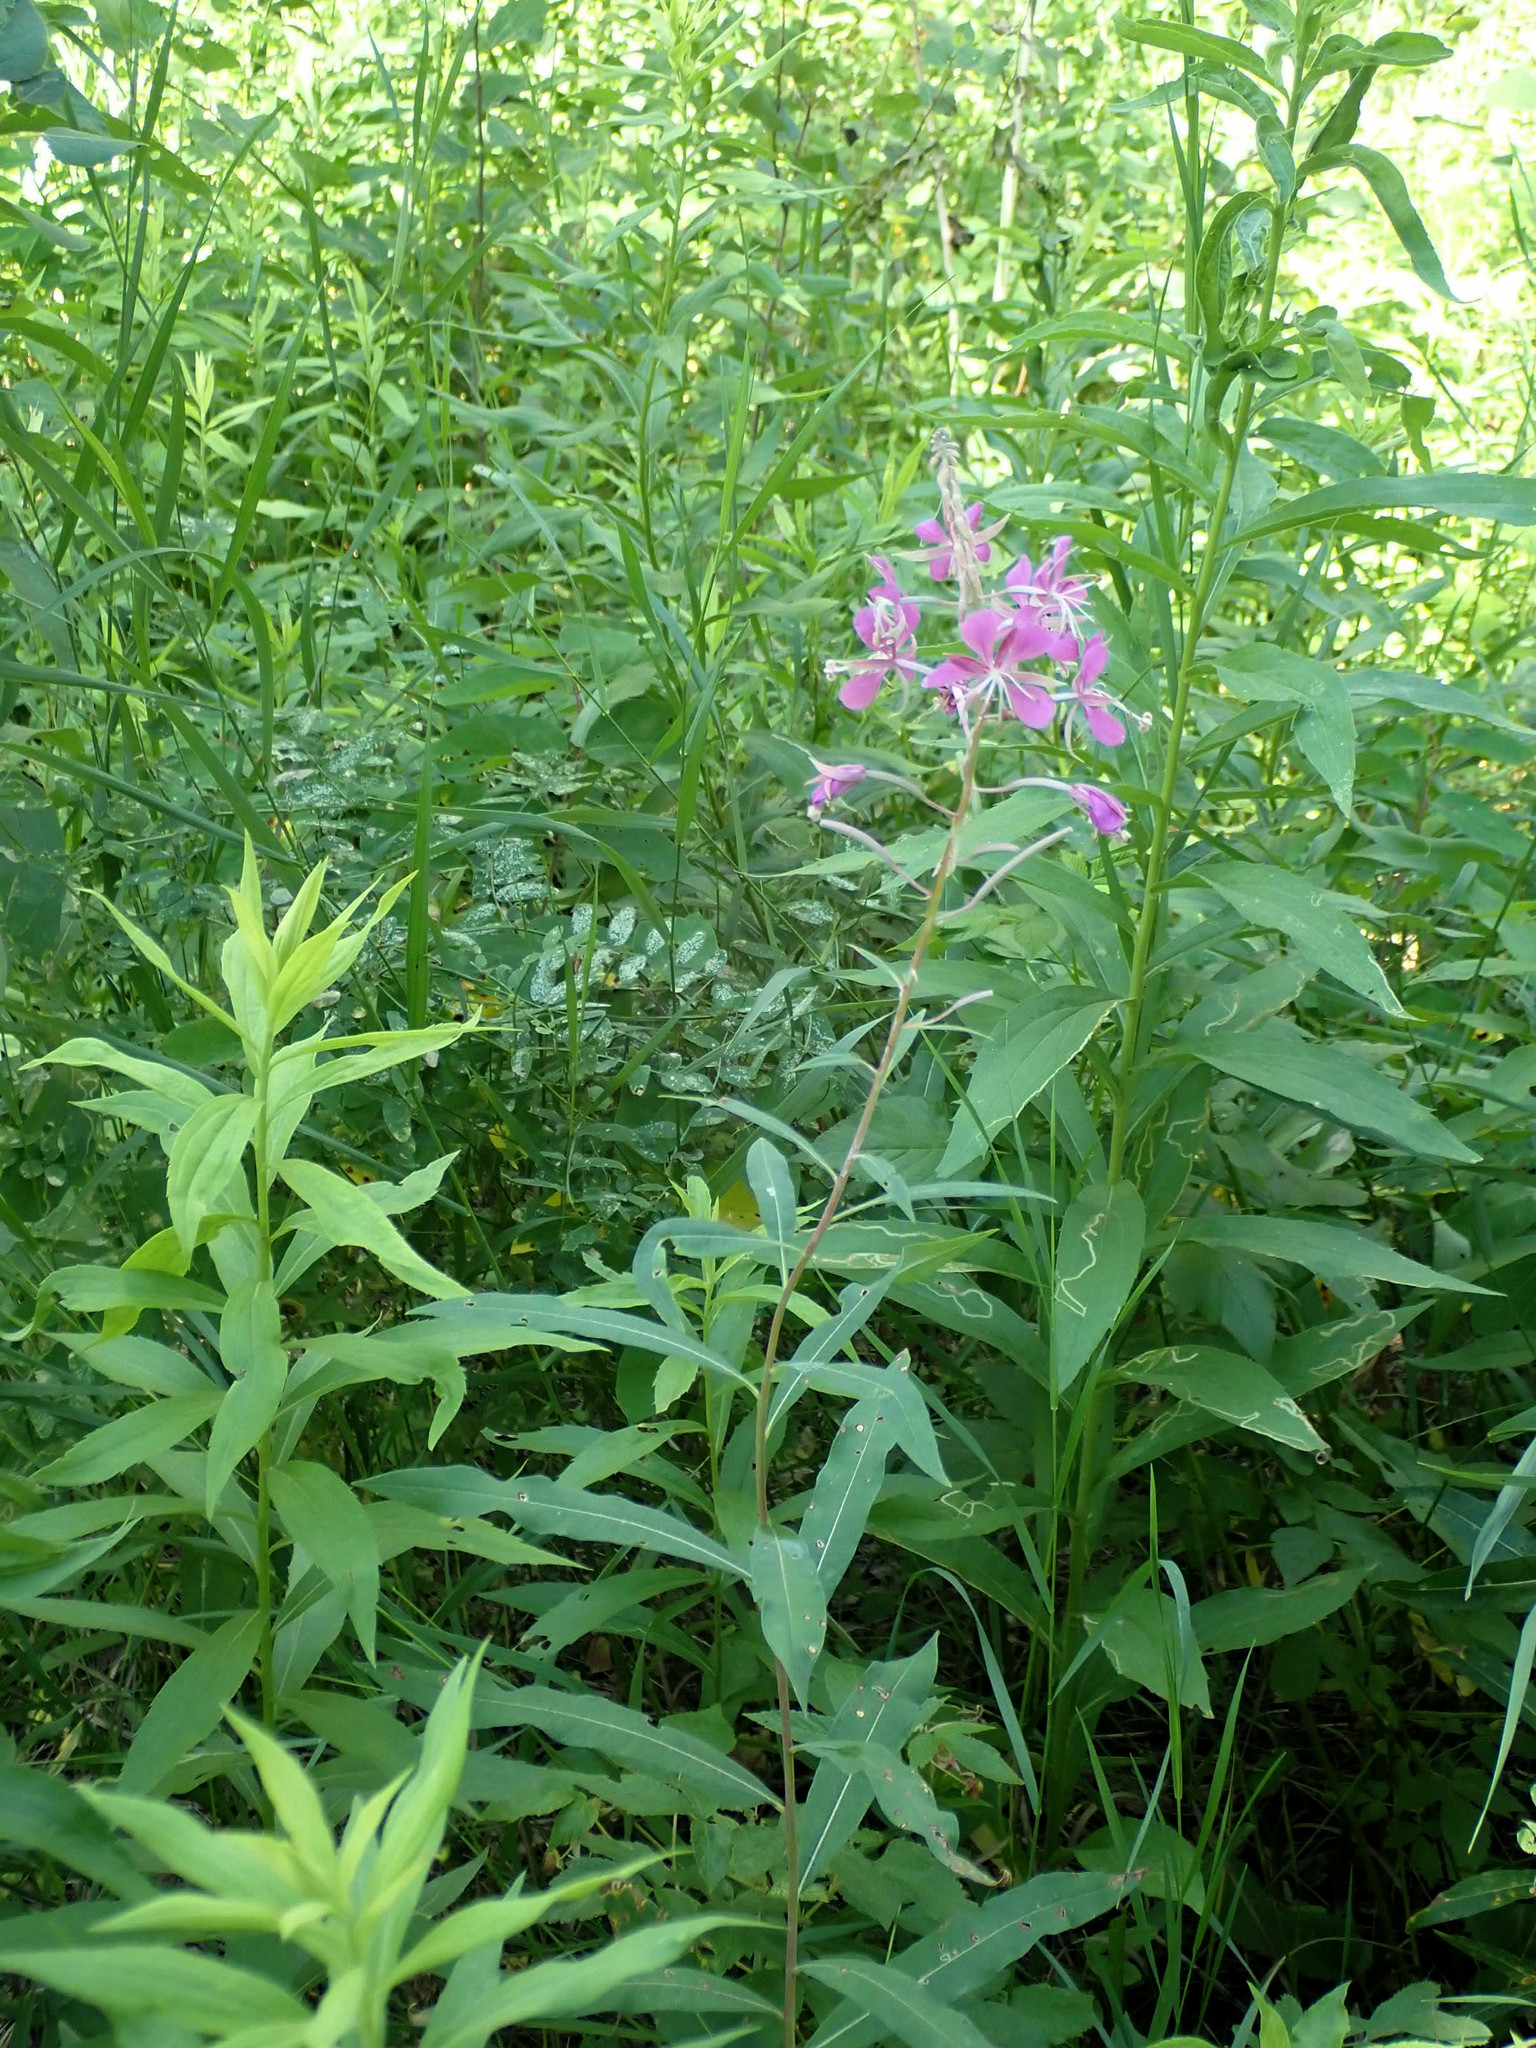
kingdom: Plantae
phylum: Tracheophyta
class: Magnoliopsida
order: Myrtales
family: Onagraceae
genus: Chamaenerion
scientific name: Chamaenerion angustifolium
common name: Fireweed
